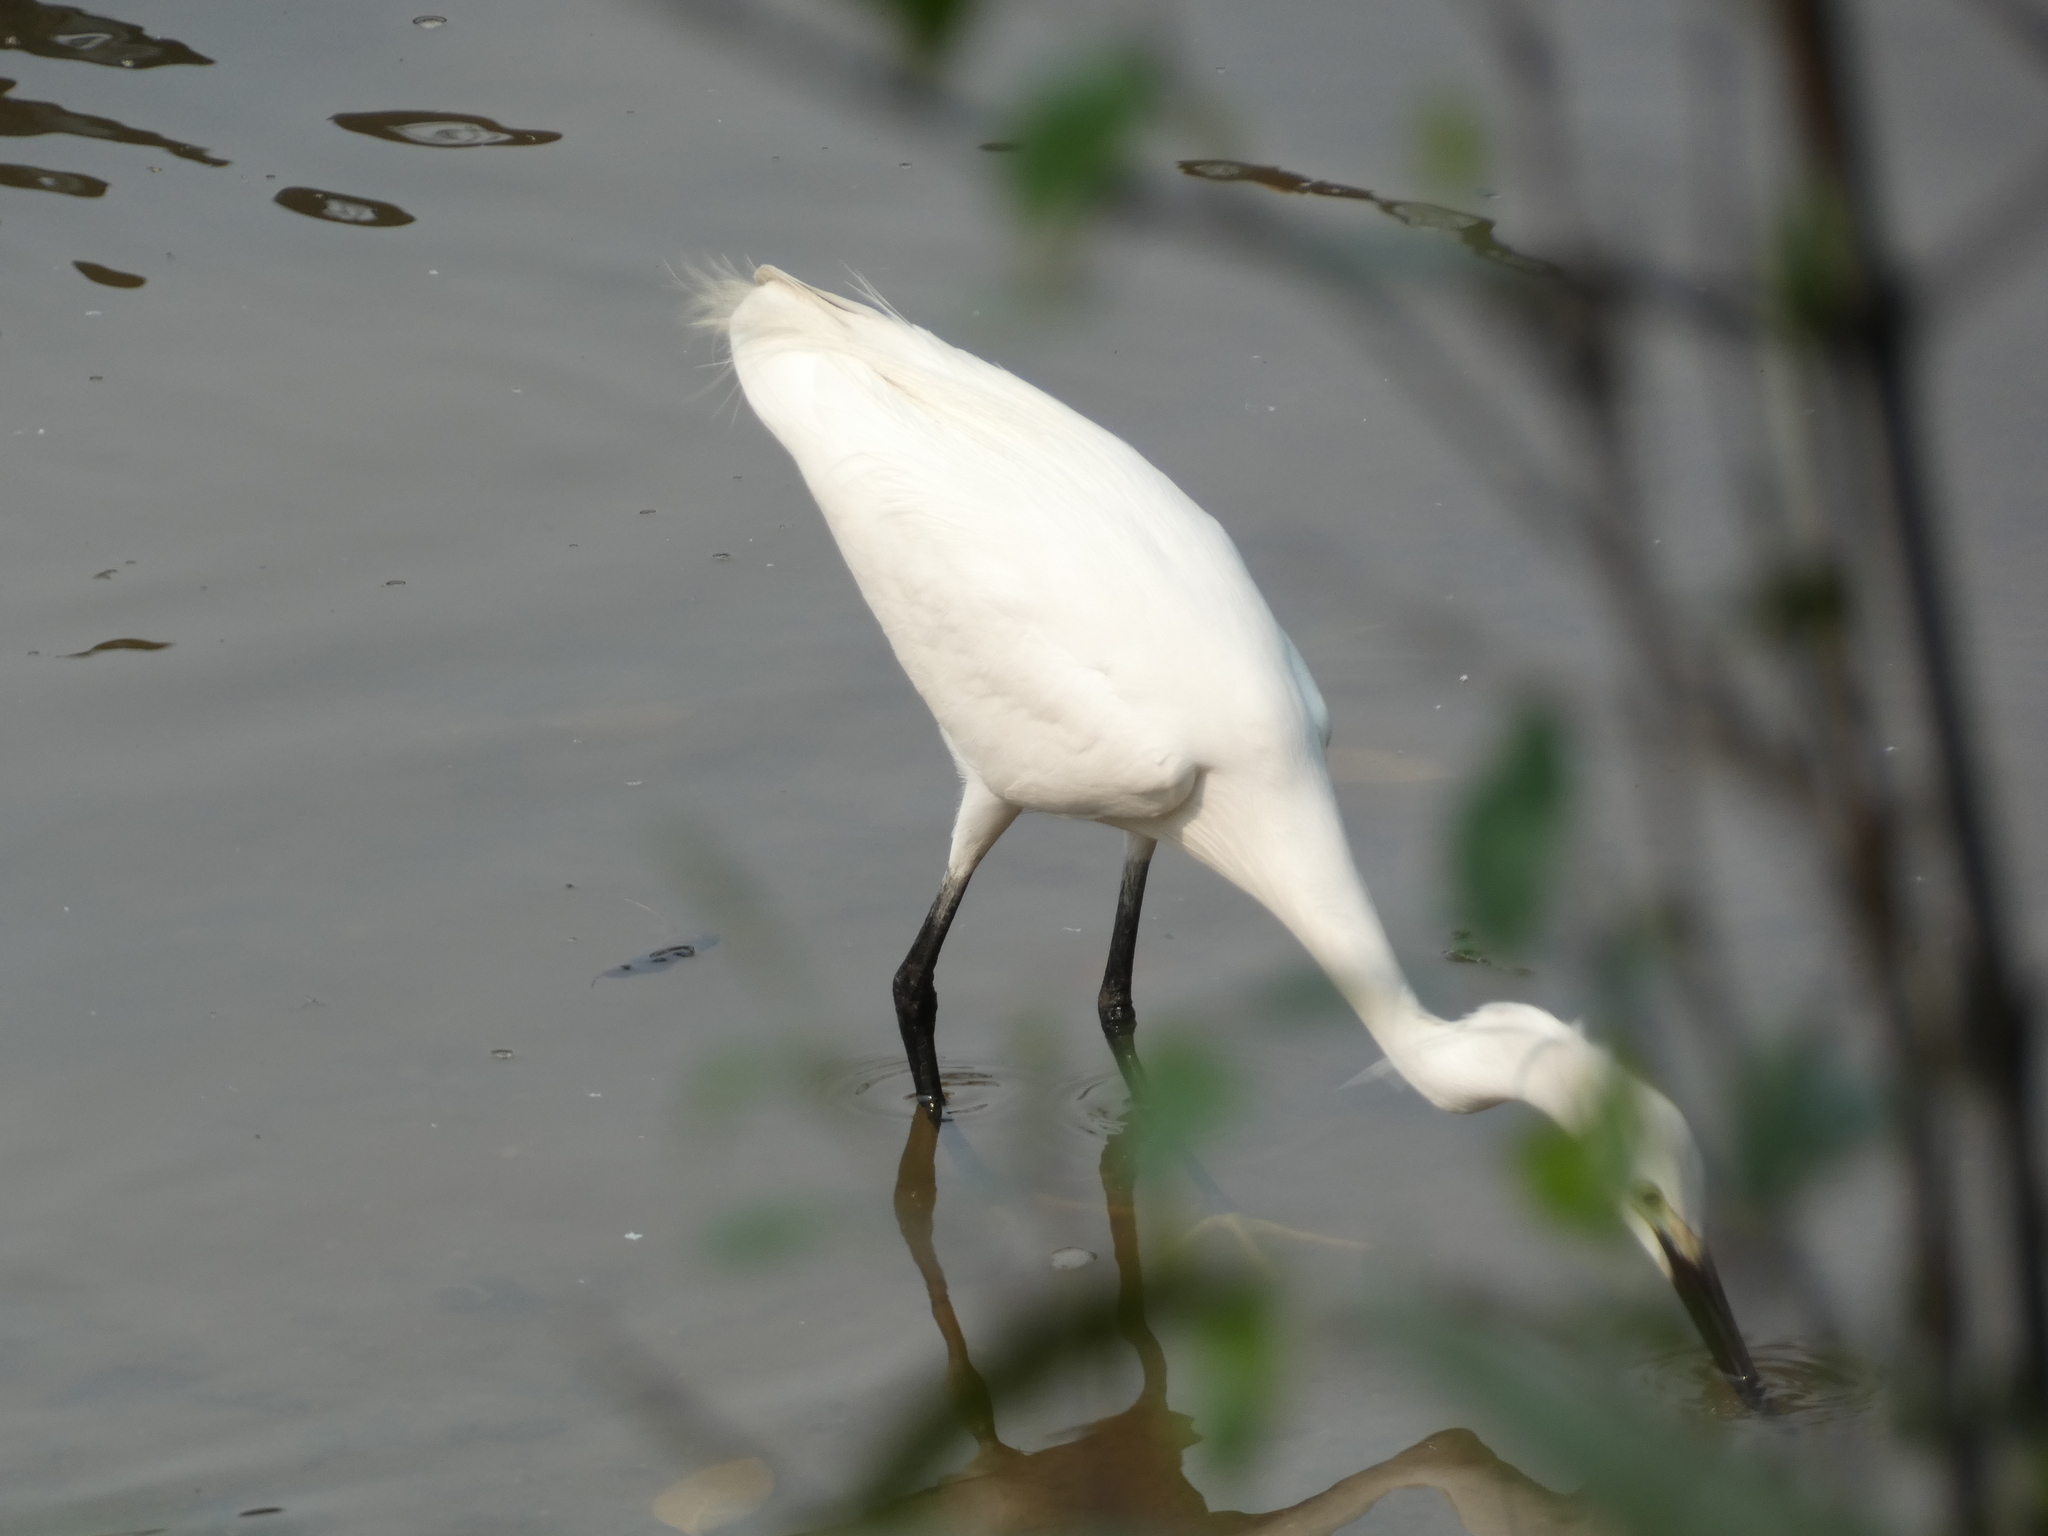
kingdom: Animalia
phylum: Chordata
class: Aves
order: Pelecaniformes
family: Ardeidae
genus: Egretta
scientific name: Egretta garzetta
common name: Little egret
